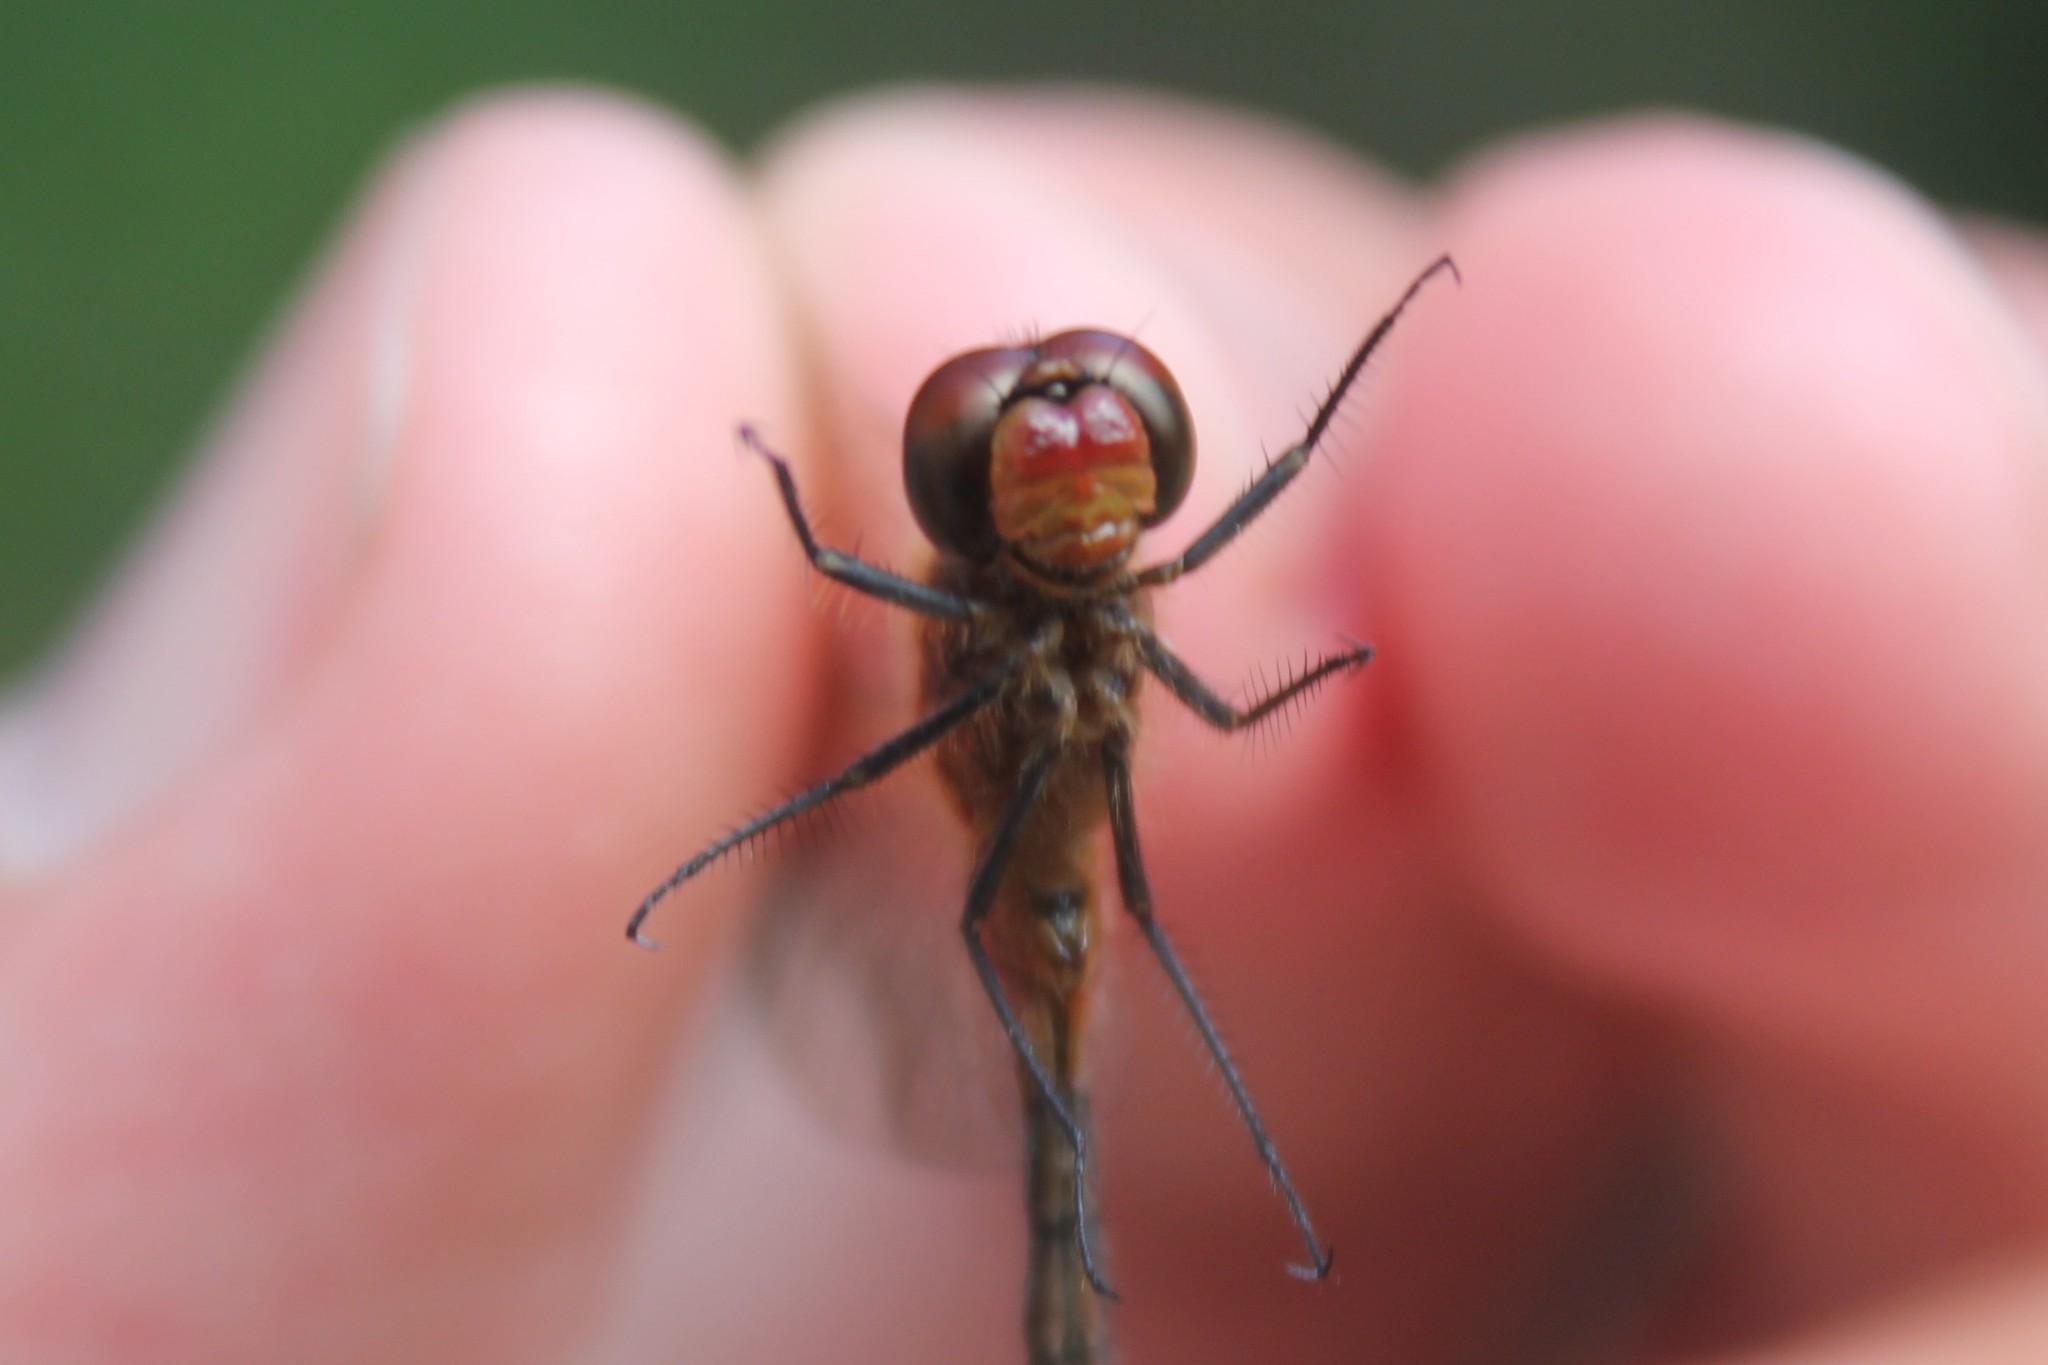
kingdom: Animalia
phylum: Arthropoda
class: Insecta
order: Odonata
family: Libellulidae
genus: Sympetrum
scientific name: Sympetrum internum
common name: Cherry-faced meadowhawk
